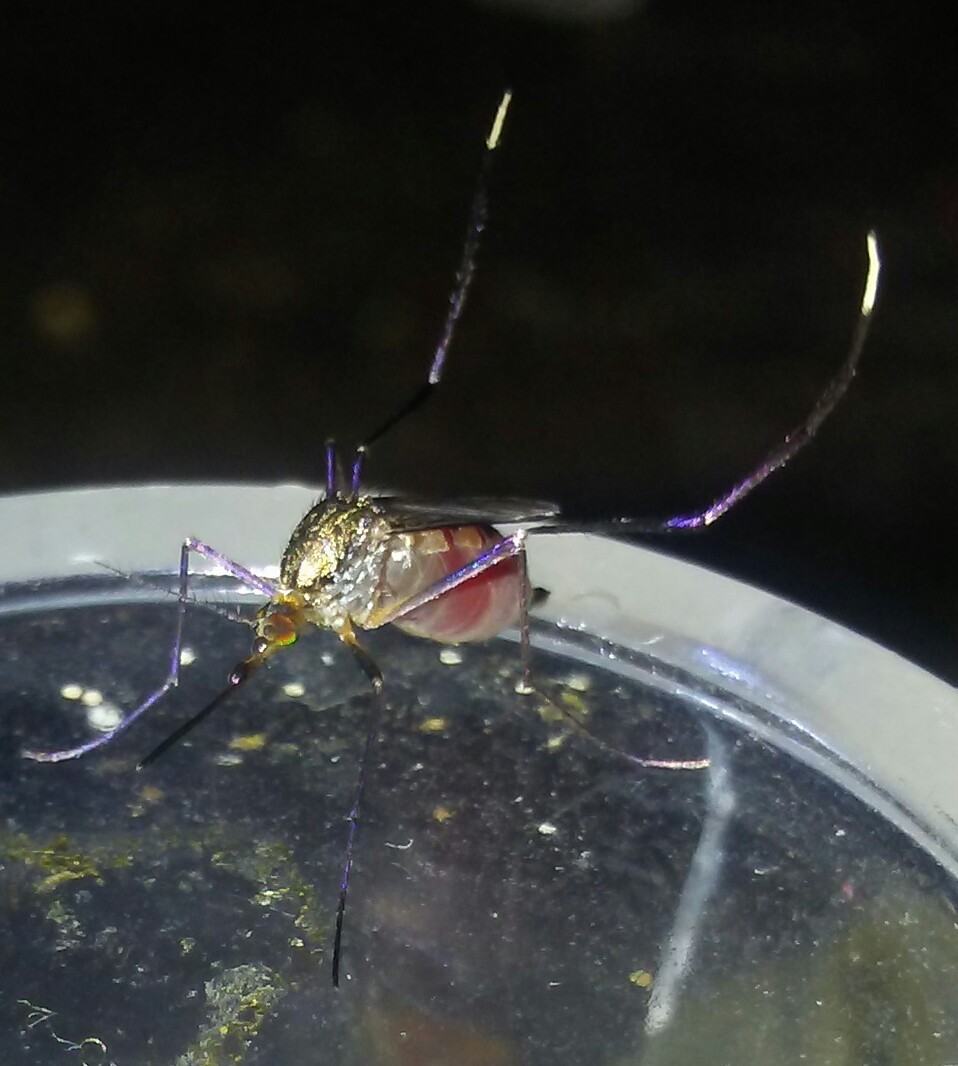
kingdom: Animalia
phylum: Arthropoda
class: Insecta
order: Diptera
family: Culicidae
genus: Psorophora
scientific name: Psorophora ferox
